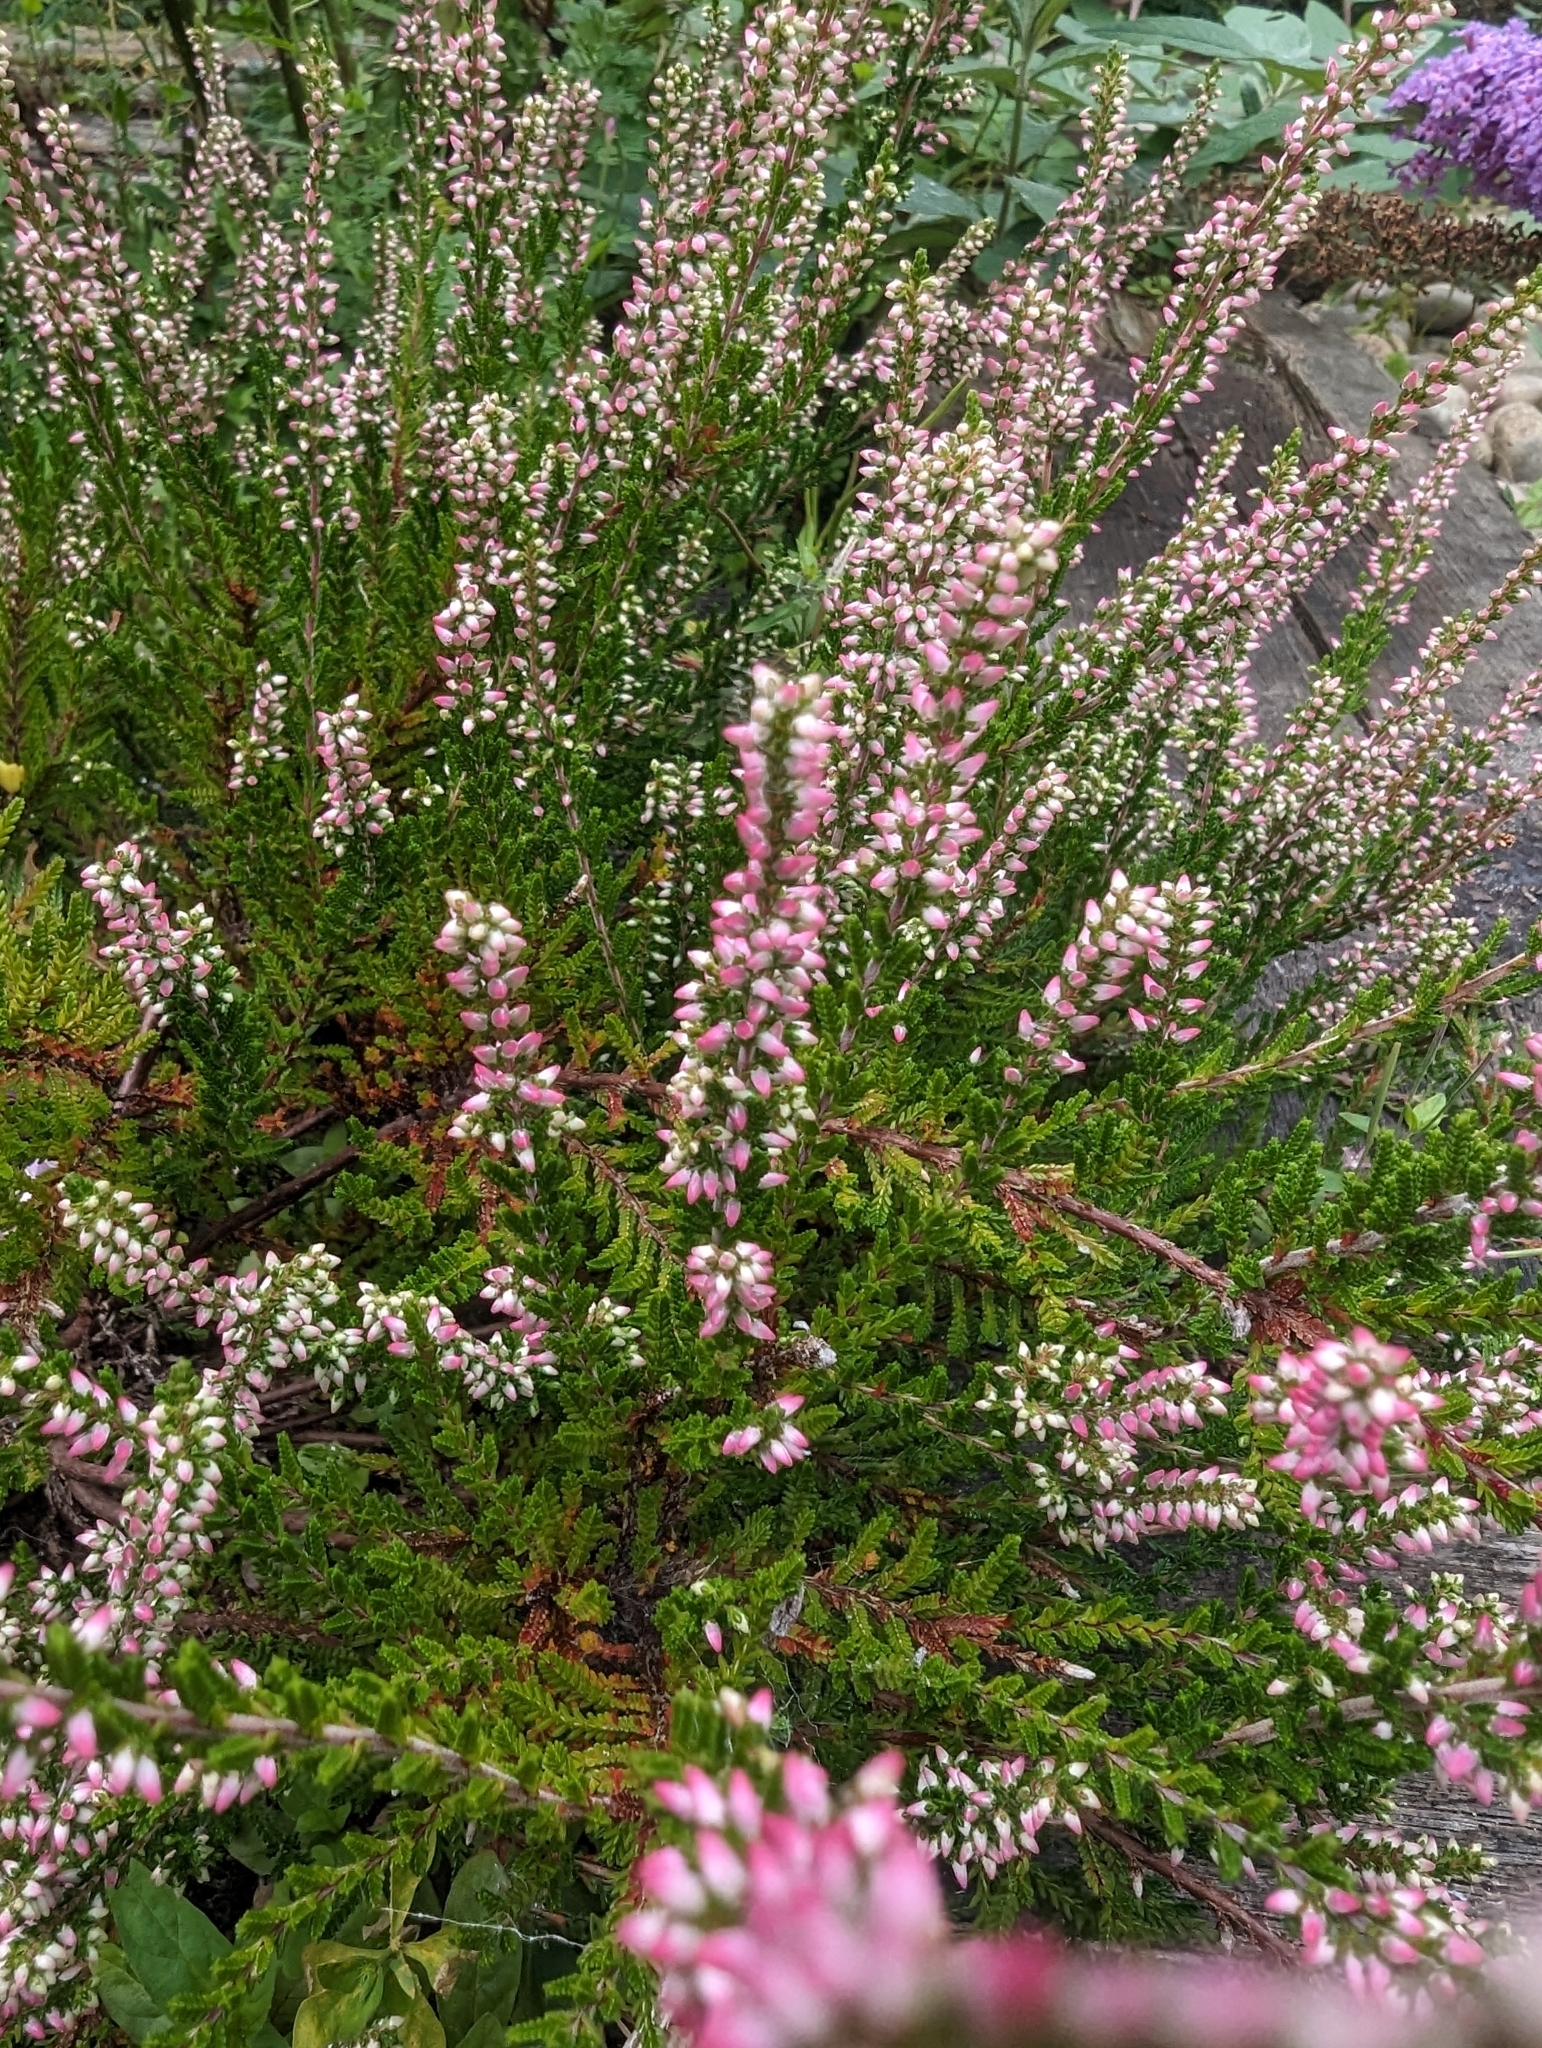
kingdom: Plantae
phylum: Tracheophyta
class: Magnoliopsida
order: Ericales
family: Ericaceae
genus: Calluna
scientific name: Calluna vulgaris
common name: Heather
